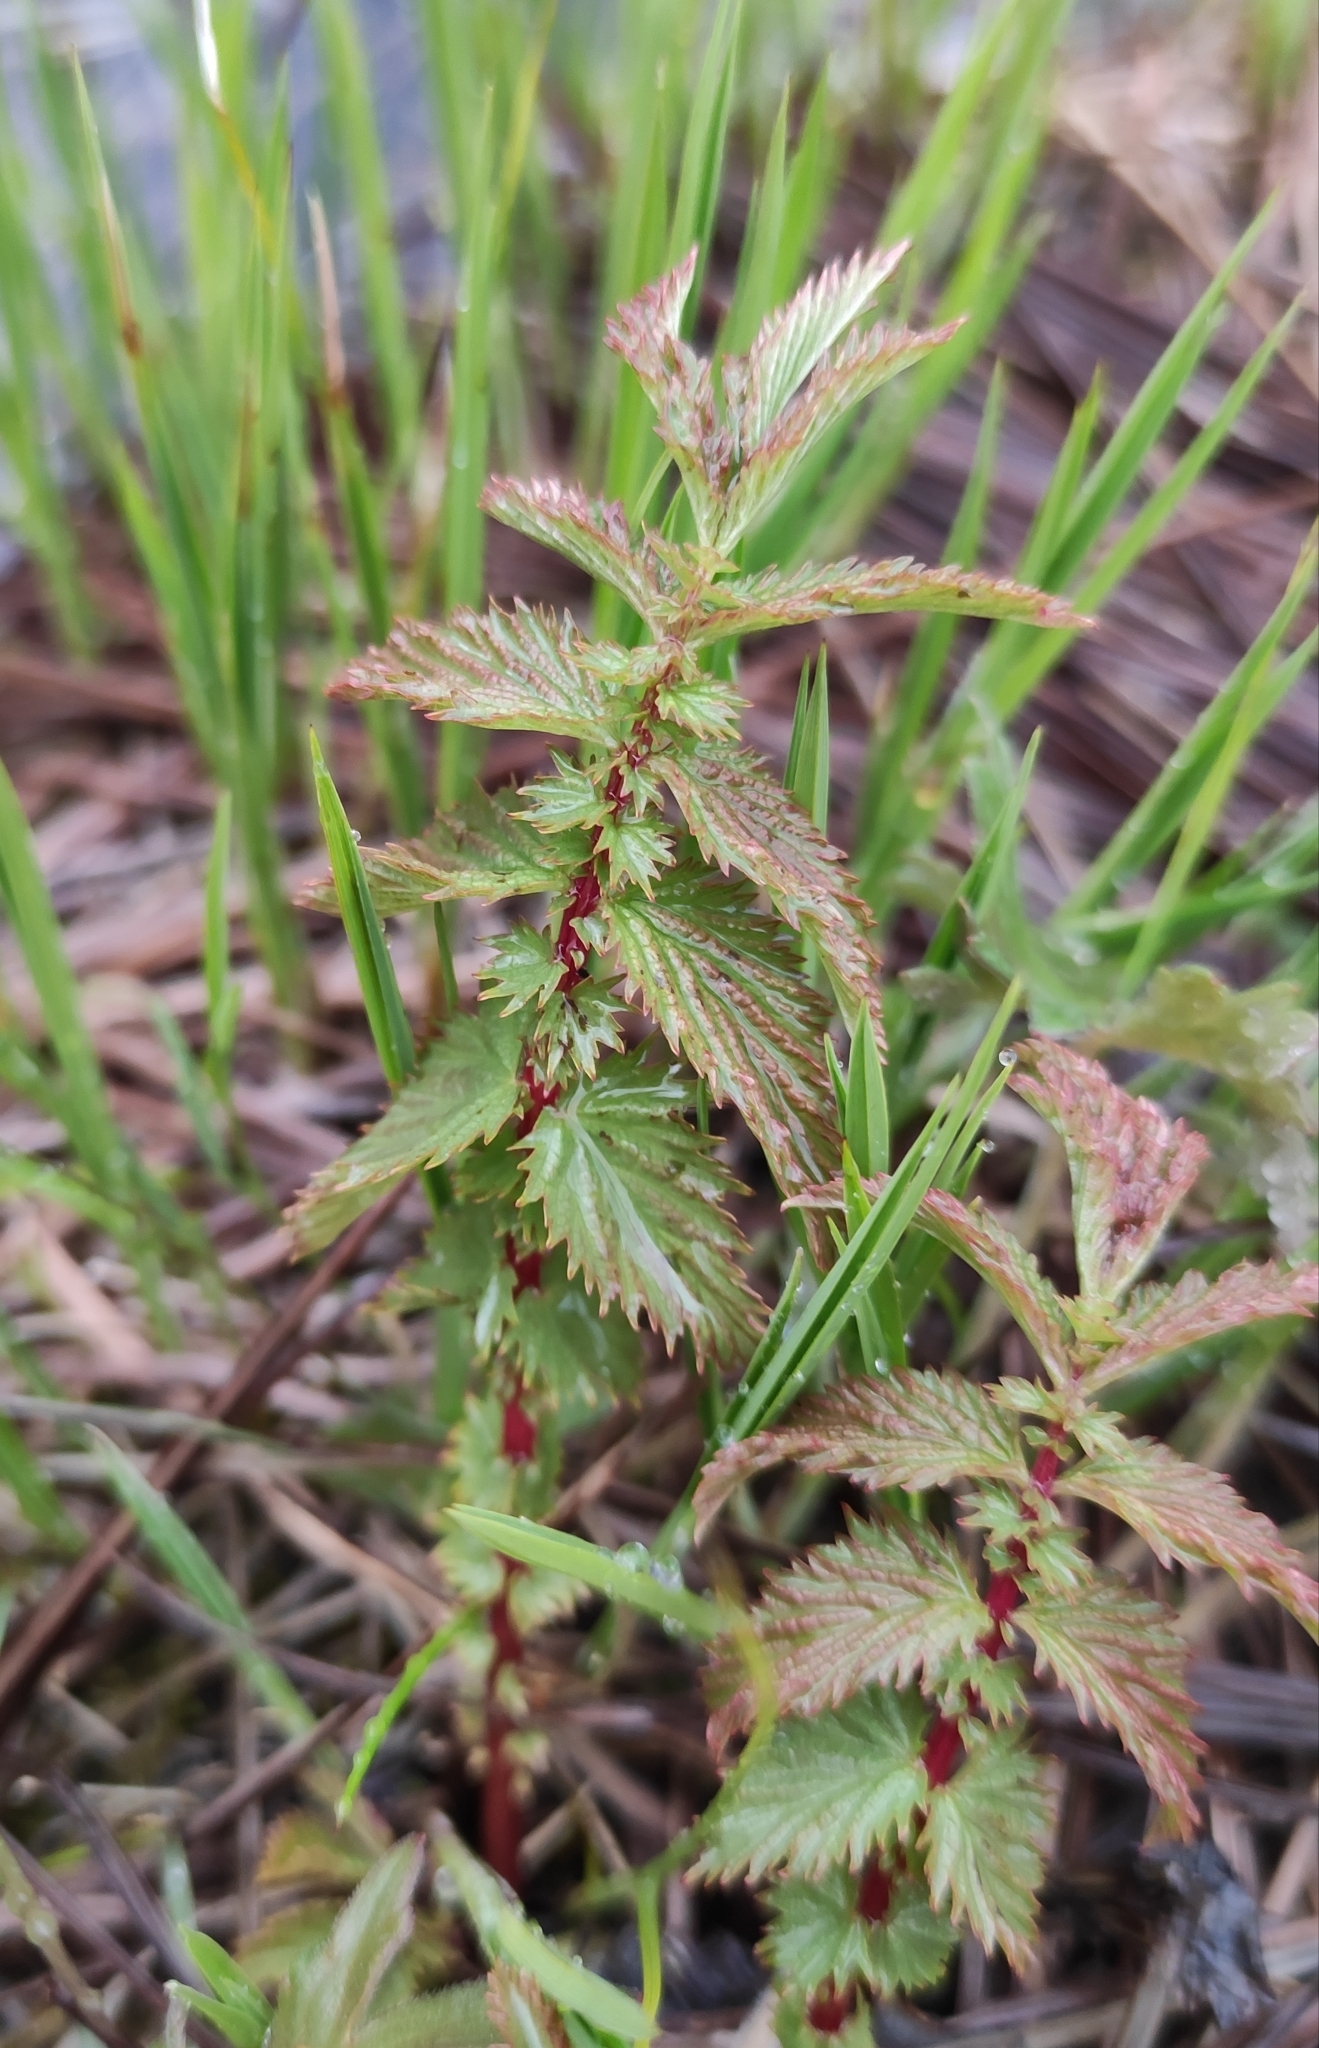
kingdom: Plantae
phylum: Tracheophyta
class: Magnoliopsida
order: Rosales
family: Rosaceae
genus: Filipendula
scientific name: Filipendula ulmaria
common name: Meadowsweet
